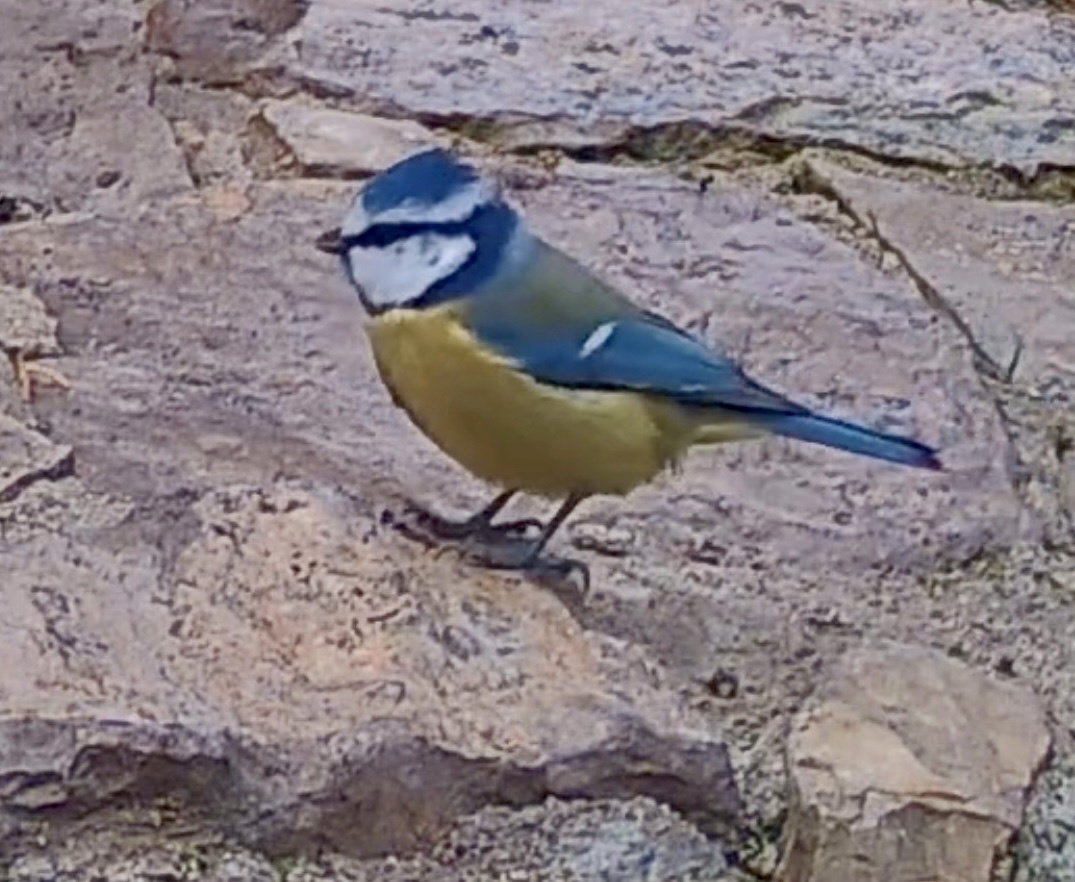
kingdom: Animalia
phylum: Chordata
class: Aves
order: Passeriformes
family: Paridae
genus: Cyanistes
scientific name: Cyanistes caeruleus
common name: Eurasian blue tit
